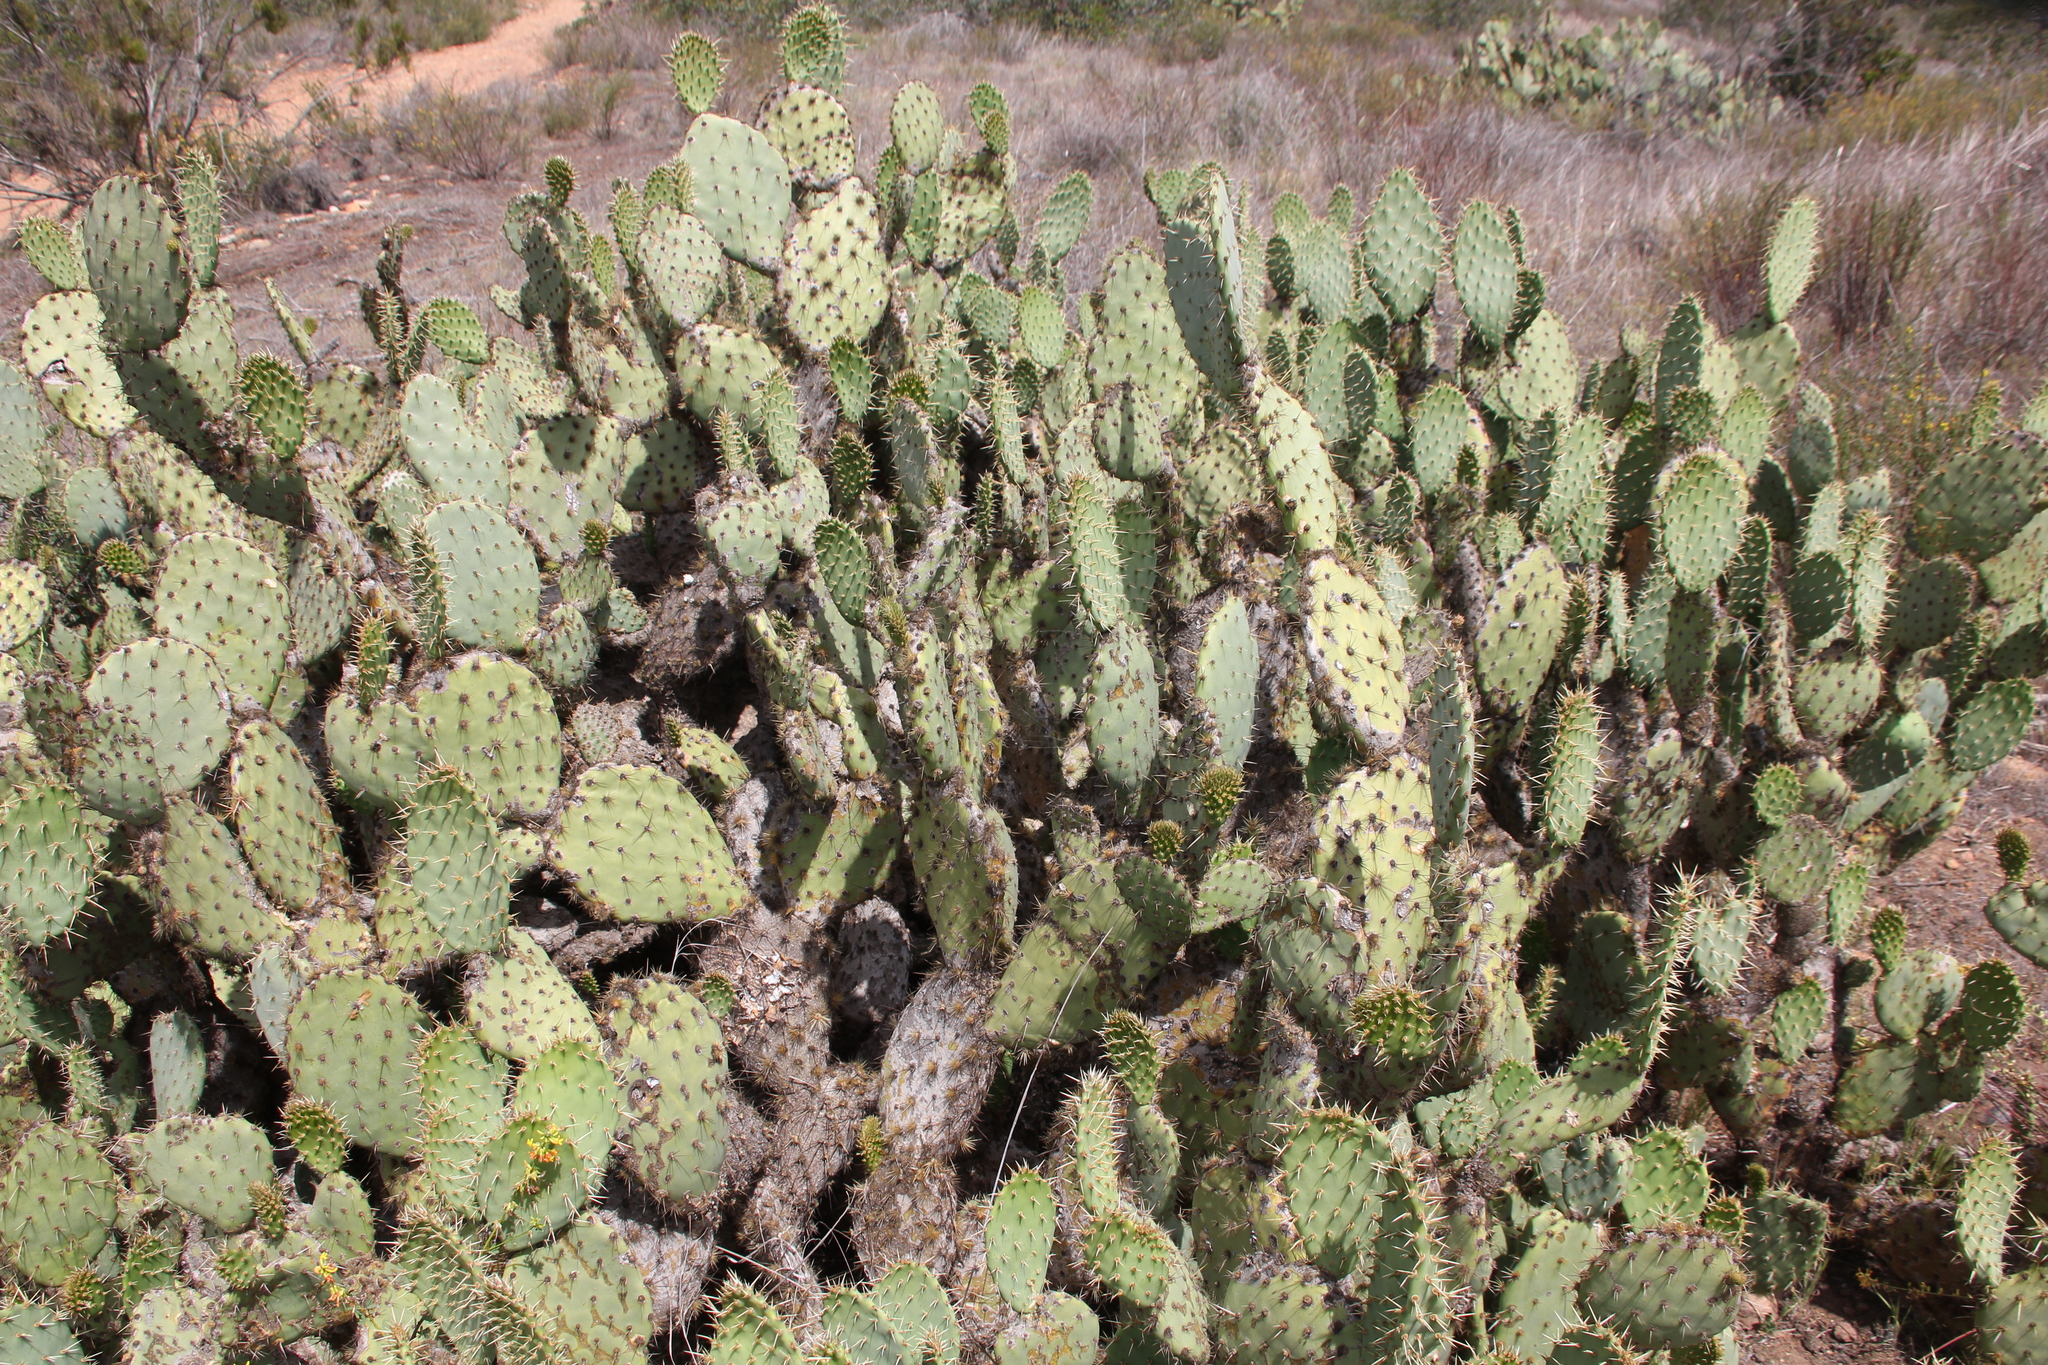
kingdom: Plantae
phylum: Tracheophyta
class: Magnoliopsida
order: Caryophyllales
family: Cactaceae
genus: Opuntia
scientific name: Opuntia littoralis
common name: Coastal prickly-pear
